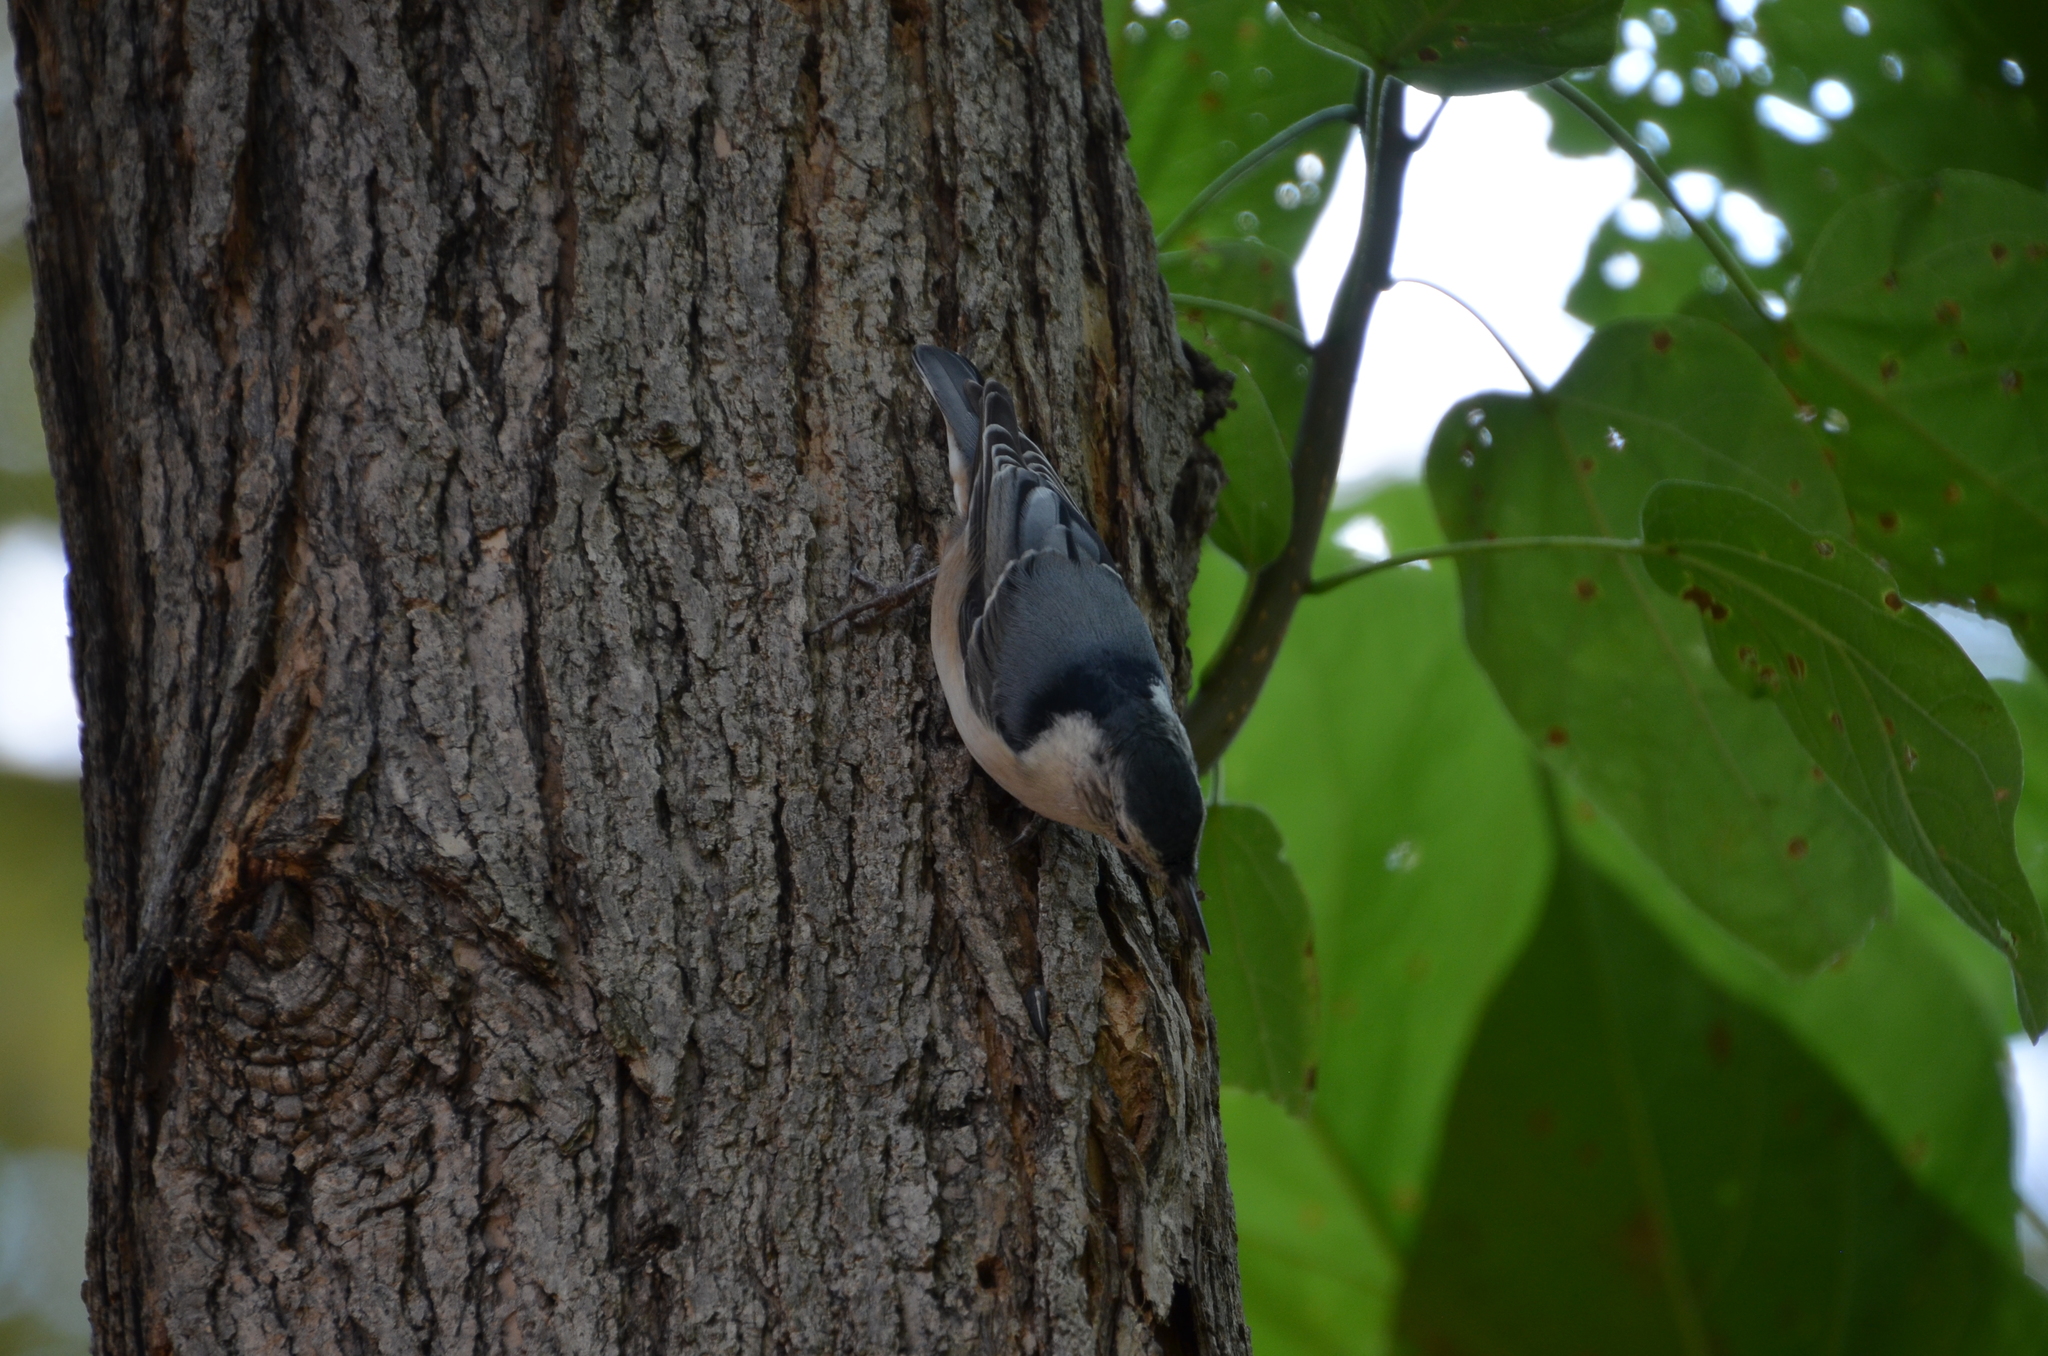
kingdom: Animalia
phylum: Chordata
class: Aves
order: Passeriformes
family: Sittidae
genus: Sitta
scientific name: Sitta carolinensis
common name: White-breasted nuthatch
